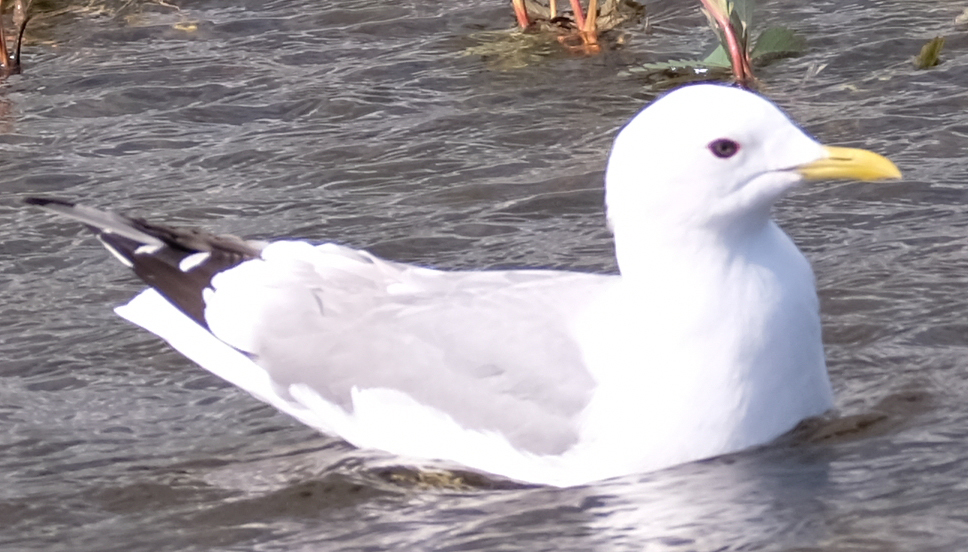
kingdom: Animalia
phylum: Chordata
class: Aves
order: Charadriiformes
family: Laridae
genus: Larus
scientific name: Larus brachyrhynchus
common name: Short-billed gull
